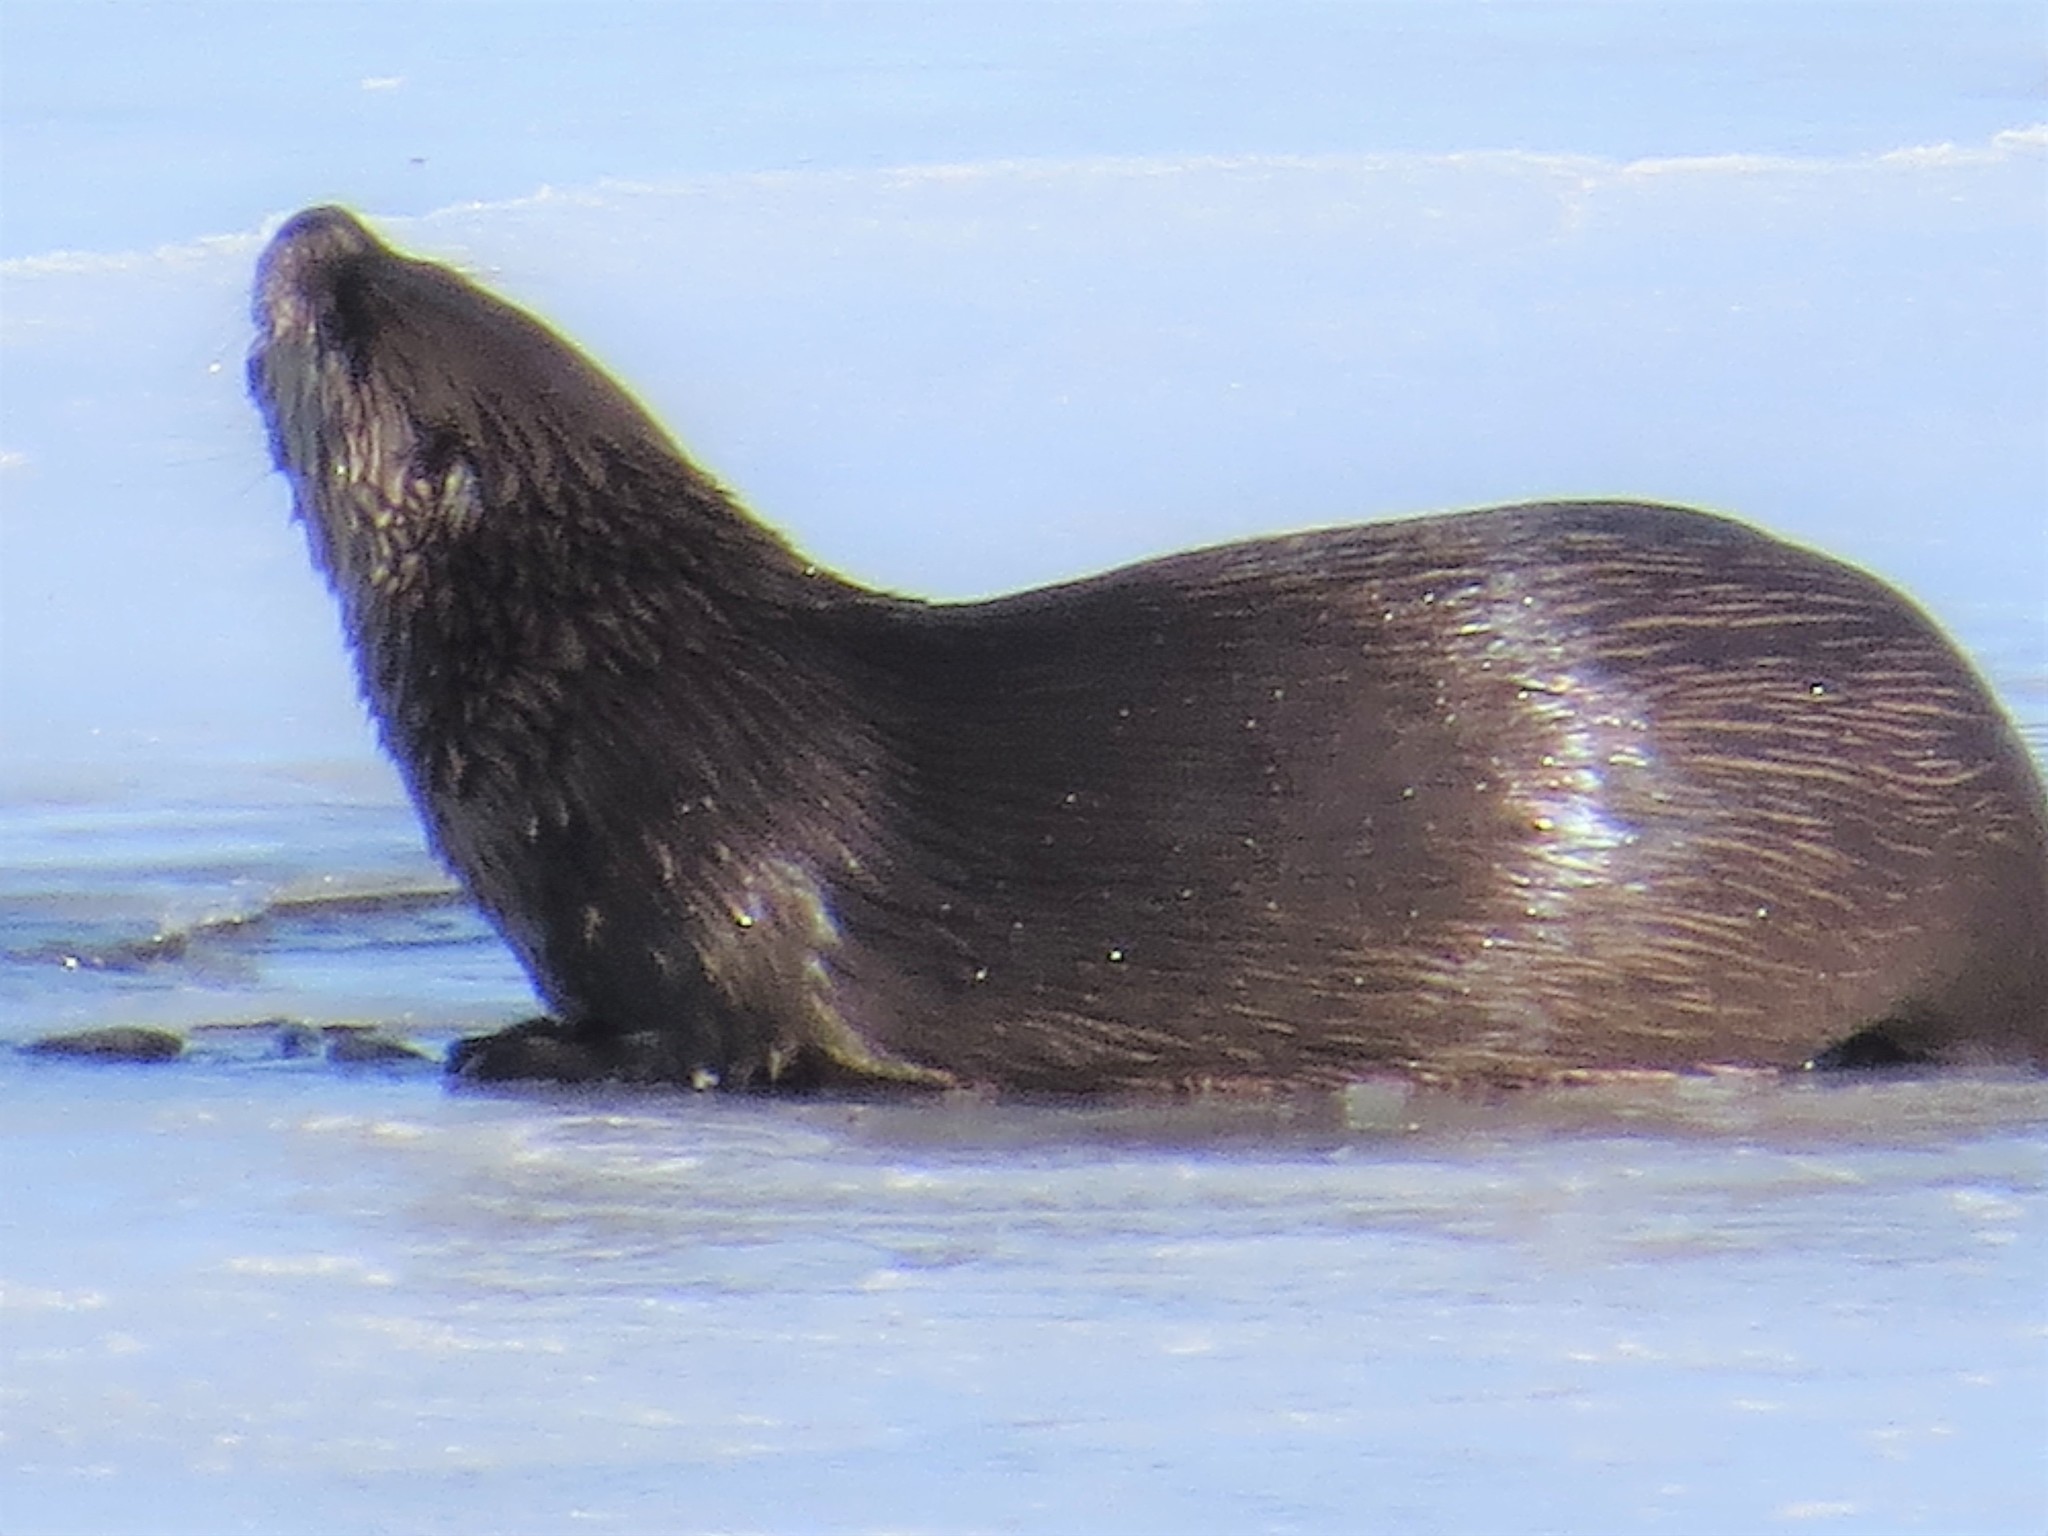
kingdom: Animalia
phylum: Chordata
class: Mammalia
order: Carnivora
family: Mustelidae
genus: Lontra
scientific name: Lontra canadensis
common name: North american river otter
